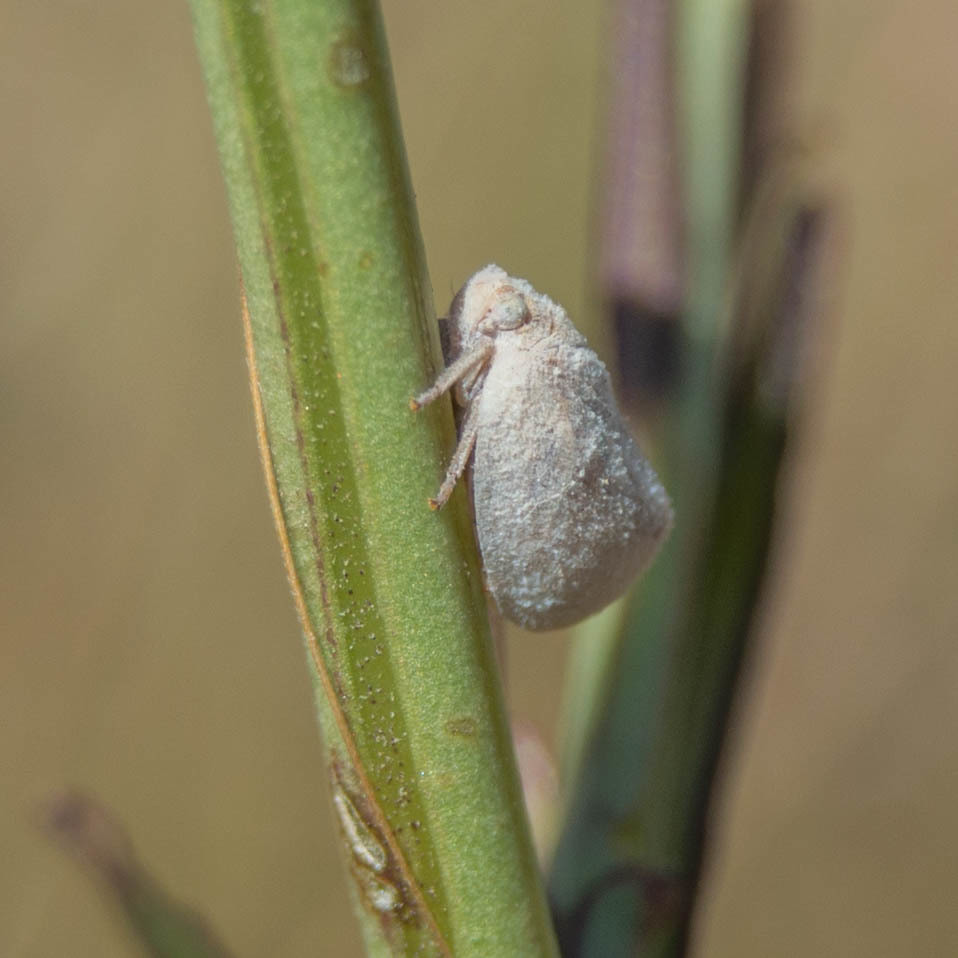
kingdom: Animalia
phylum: Arthropoda
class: Insecta
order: Hemiptera
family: Flatidae
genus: Byllis
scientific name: Byllis subgranulata
